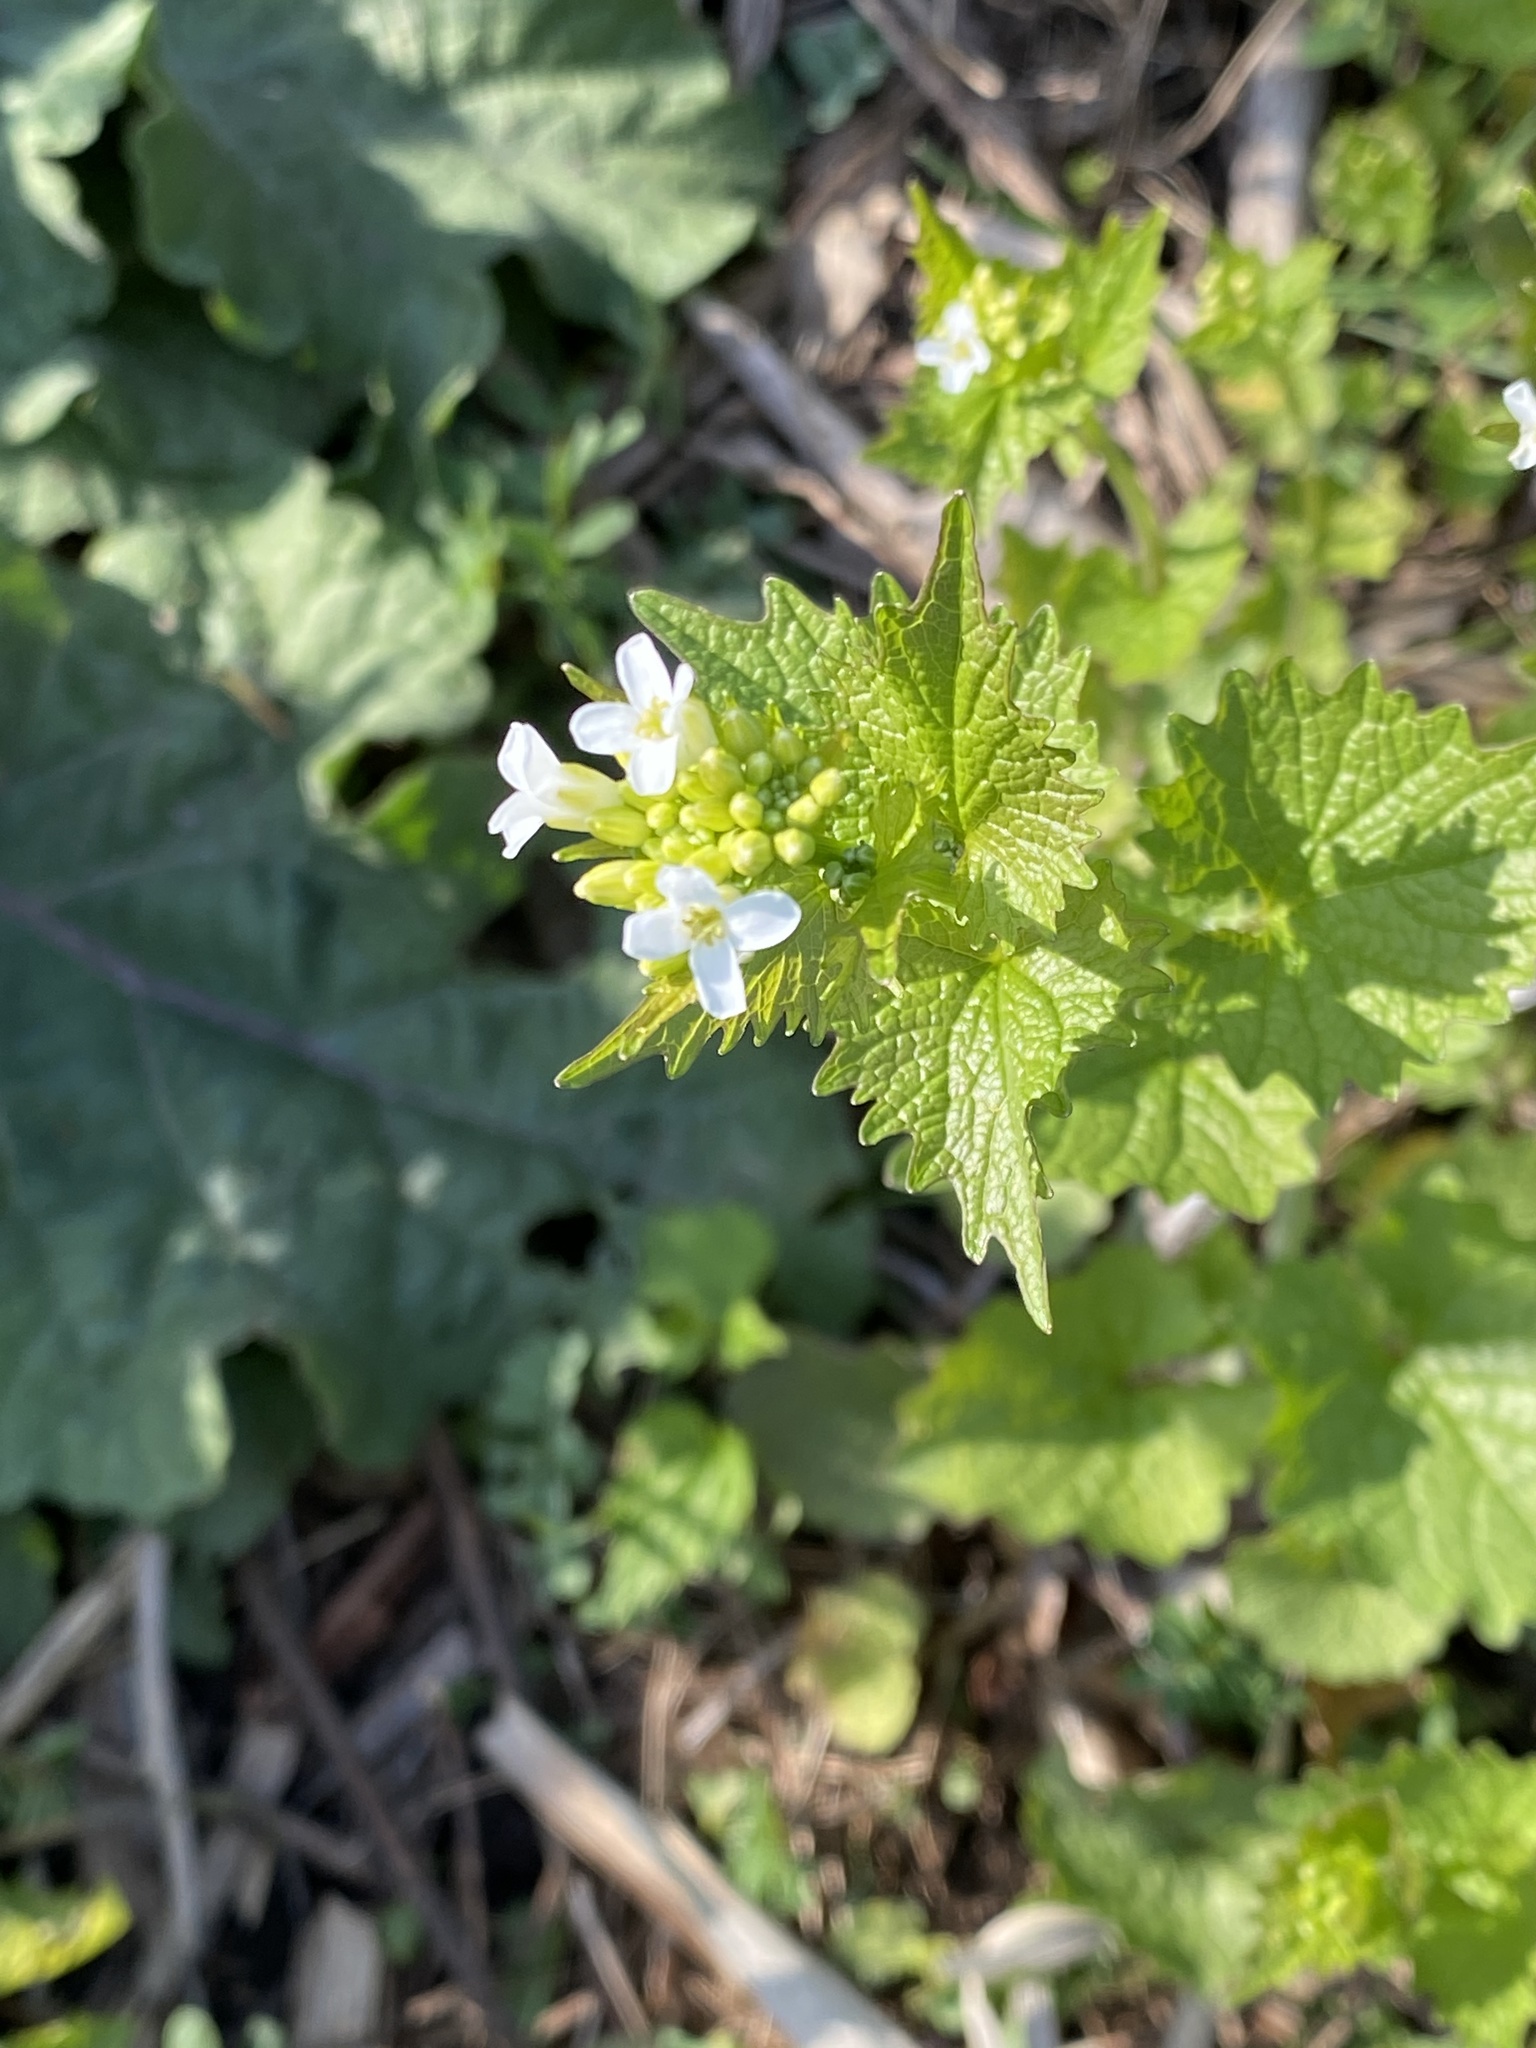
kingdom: Plantae
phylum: Tracheophyta
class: Magnoliopsida
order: Brassicales
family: Brassicaceae
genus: Alliaria
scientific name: Alliaria petiolata
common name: Garlic mustard
